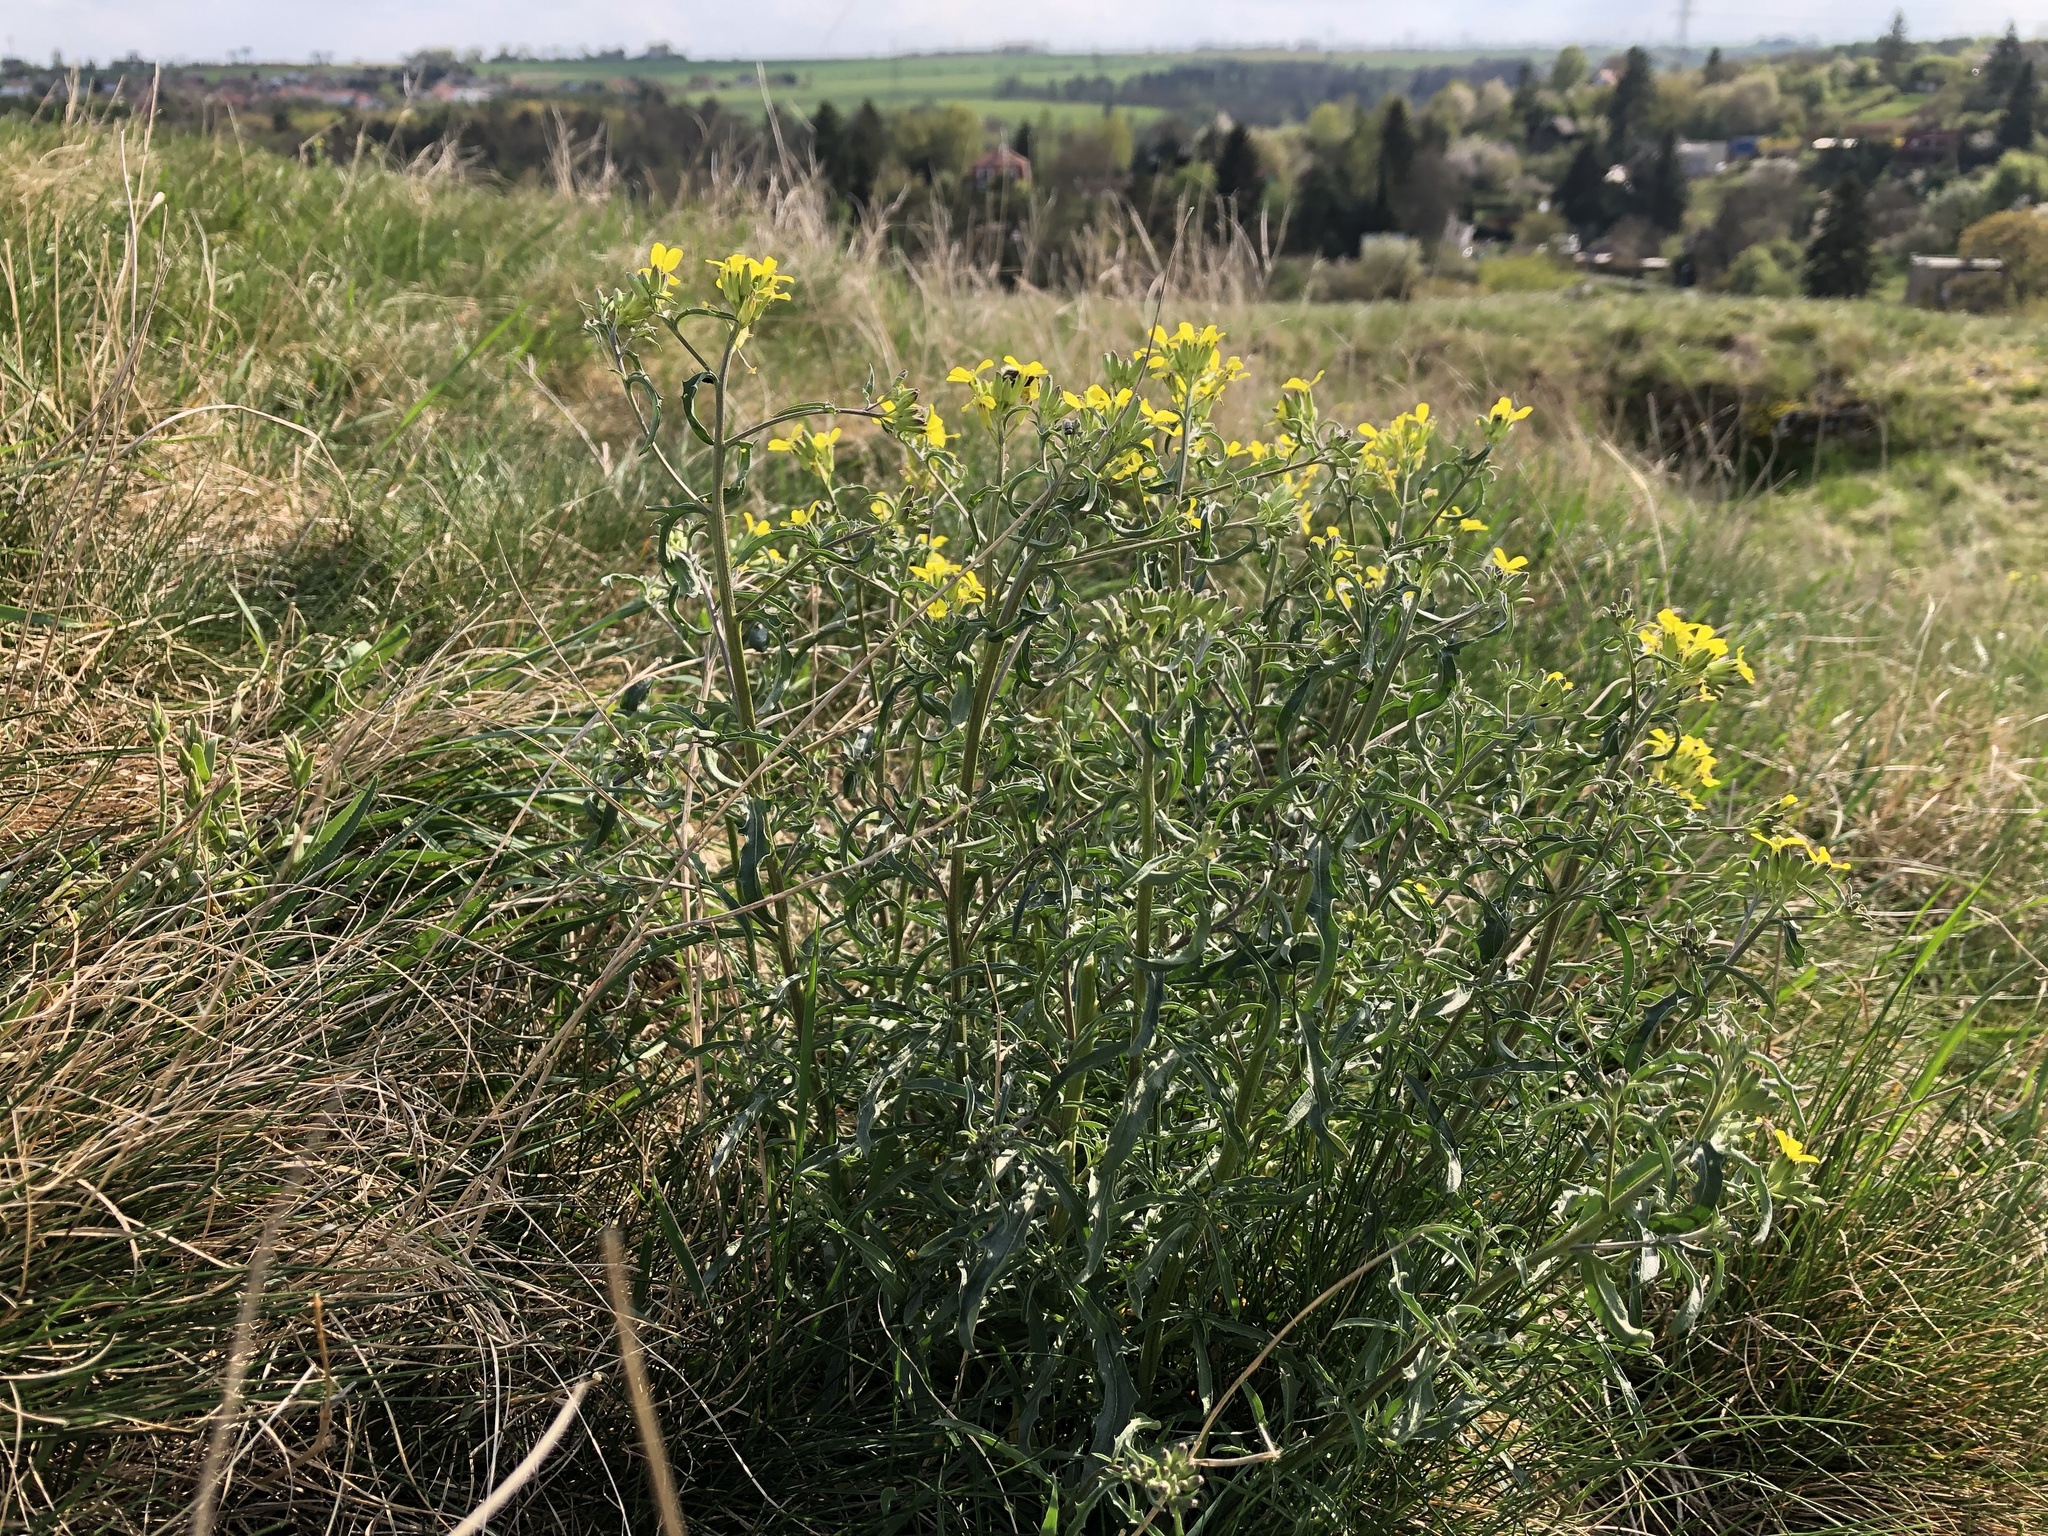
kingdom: Plantae
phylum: Tracheophyta
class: Magnoliopsida
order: Brassicales
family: Brassicaceae
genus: Erysimum
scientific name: Erysimum crepidifolium
